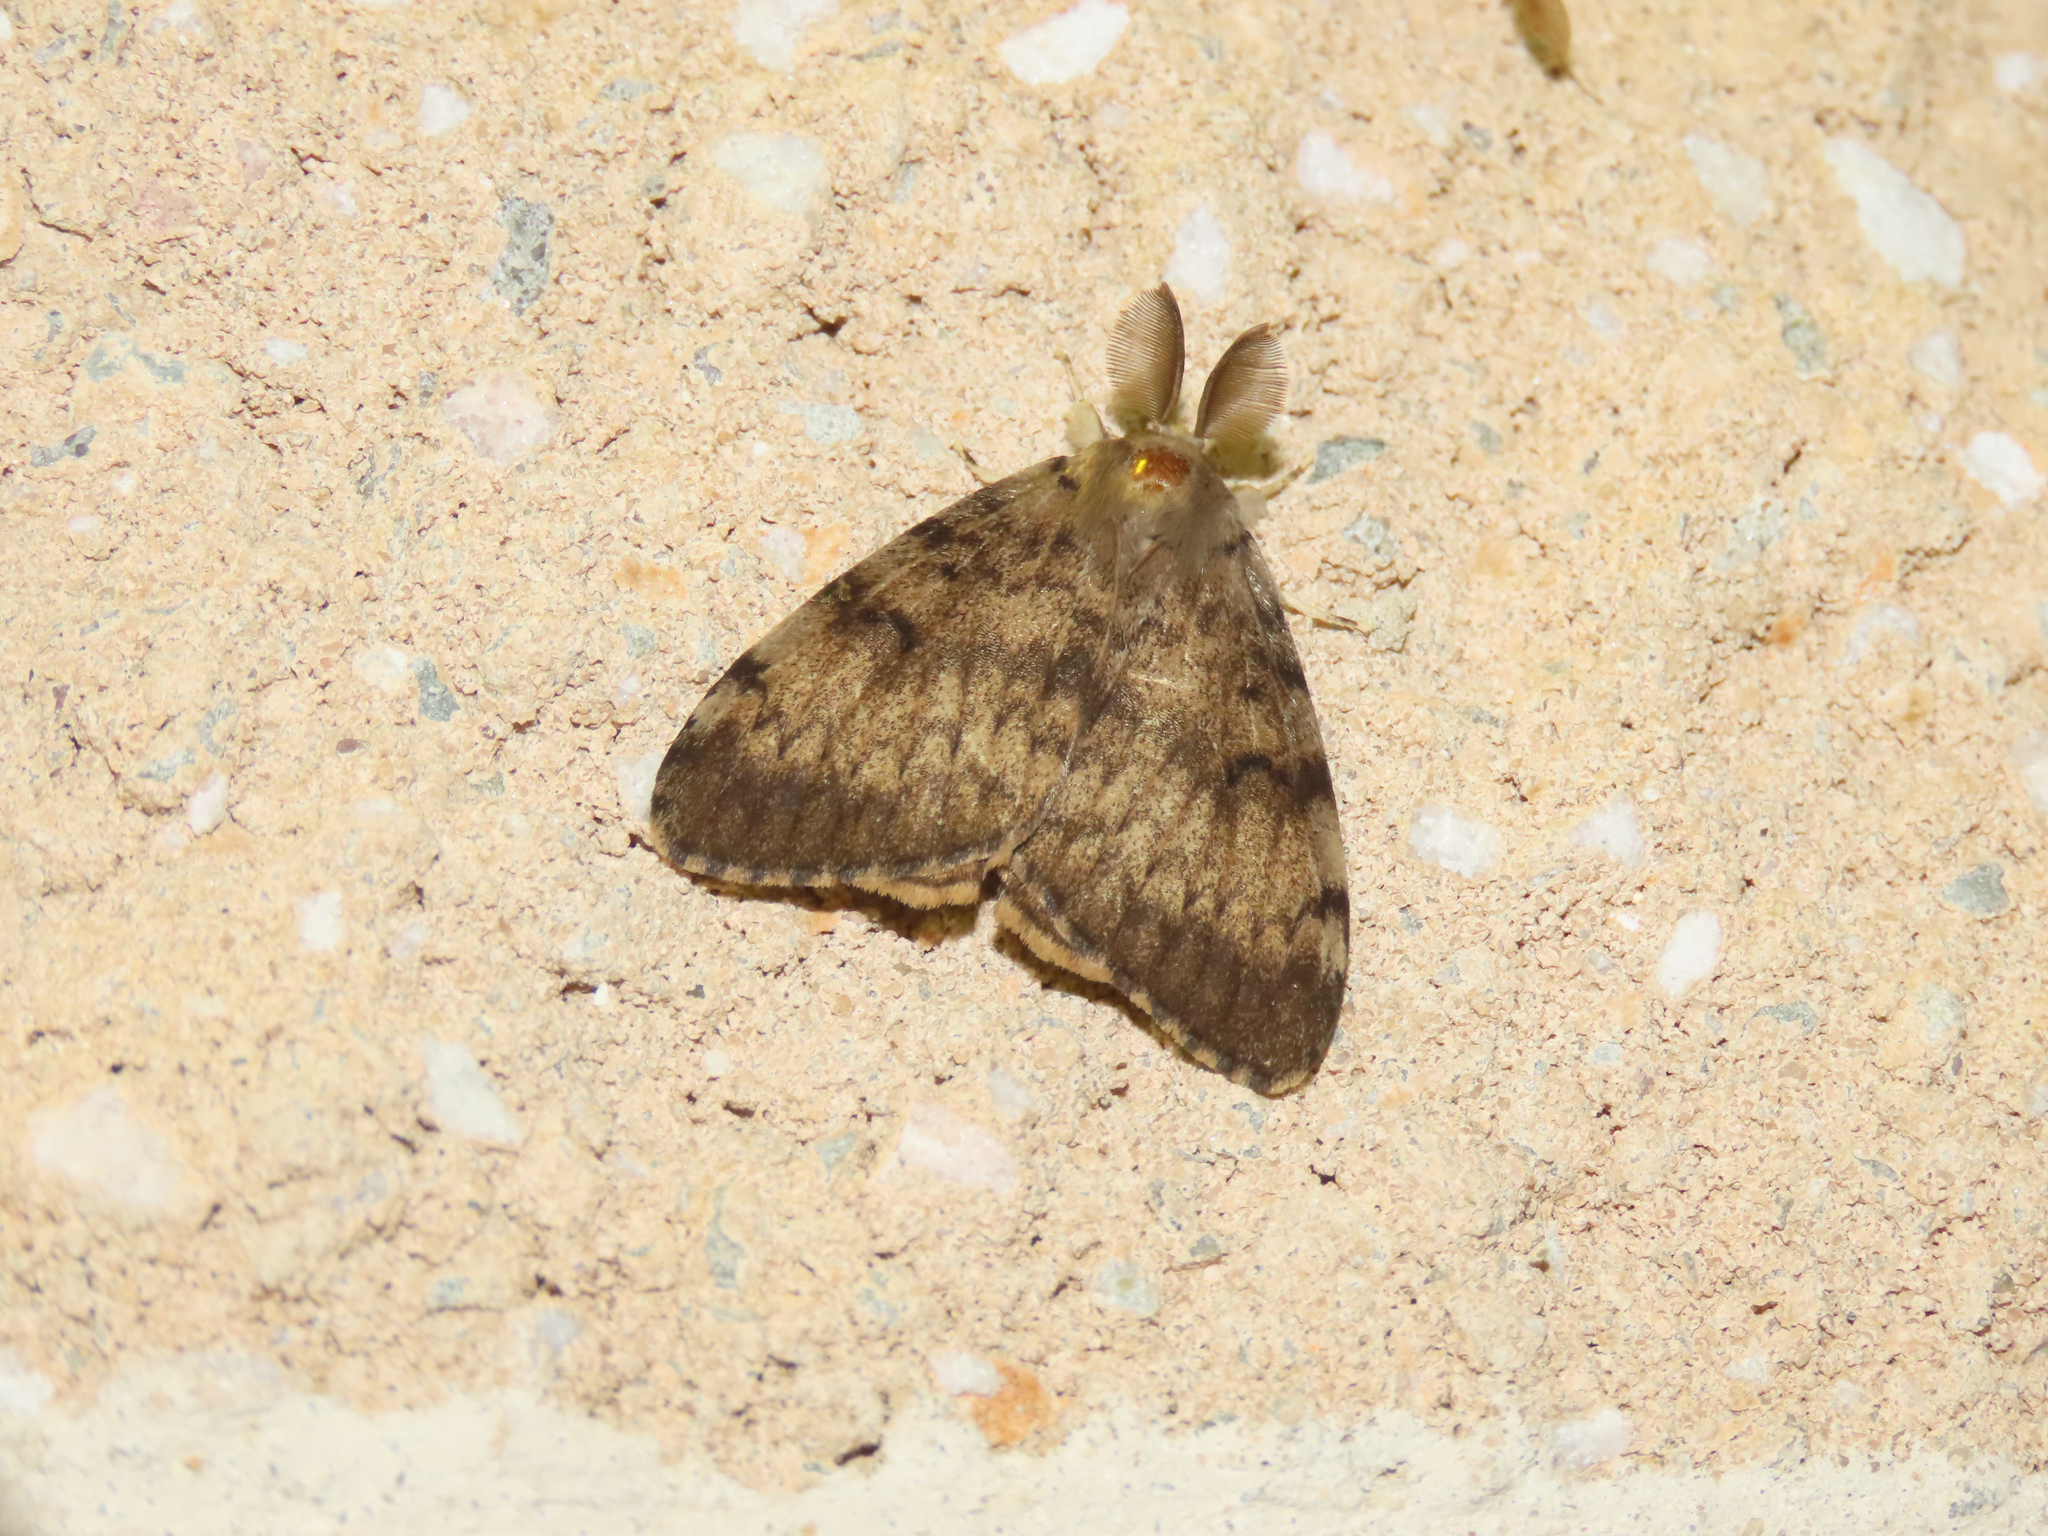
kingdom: Animalia
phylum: Arthropoda
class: Insecta
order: Lepidoptera
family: Erebidae
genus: Lymantria
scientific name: Lymantria dispar
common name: Gypsy moth
